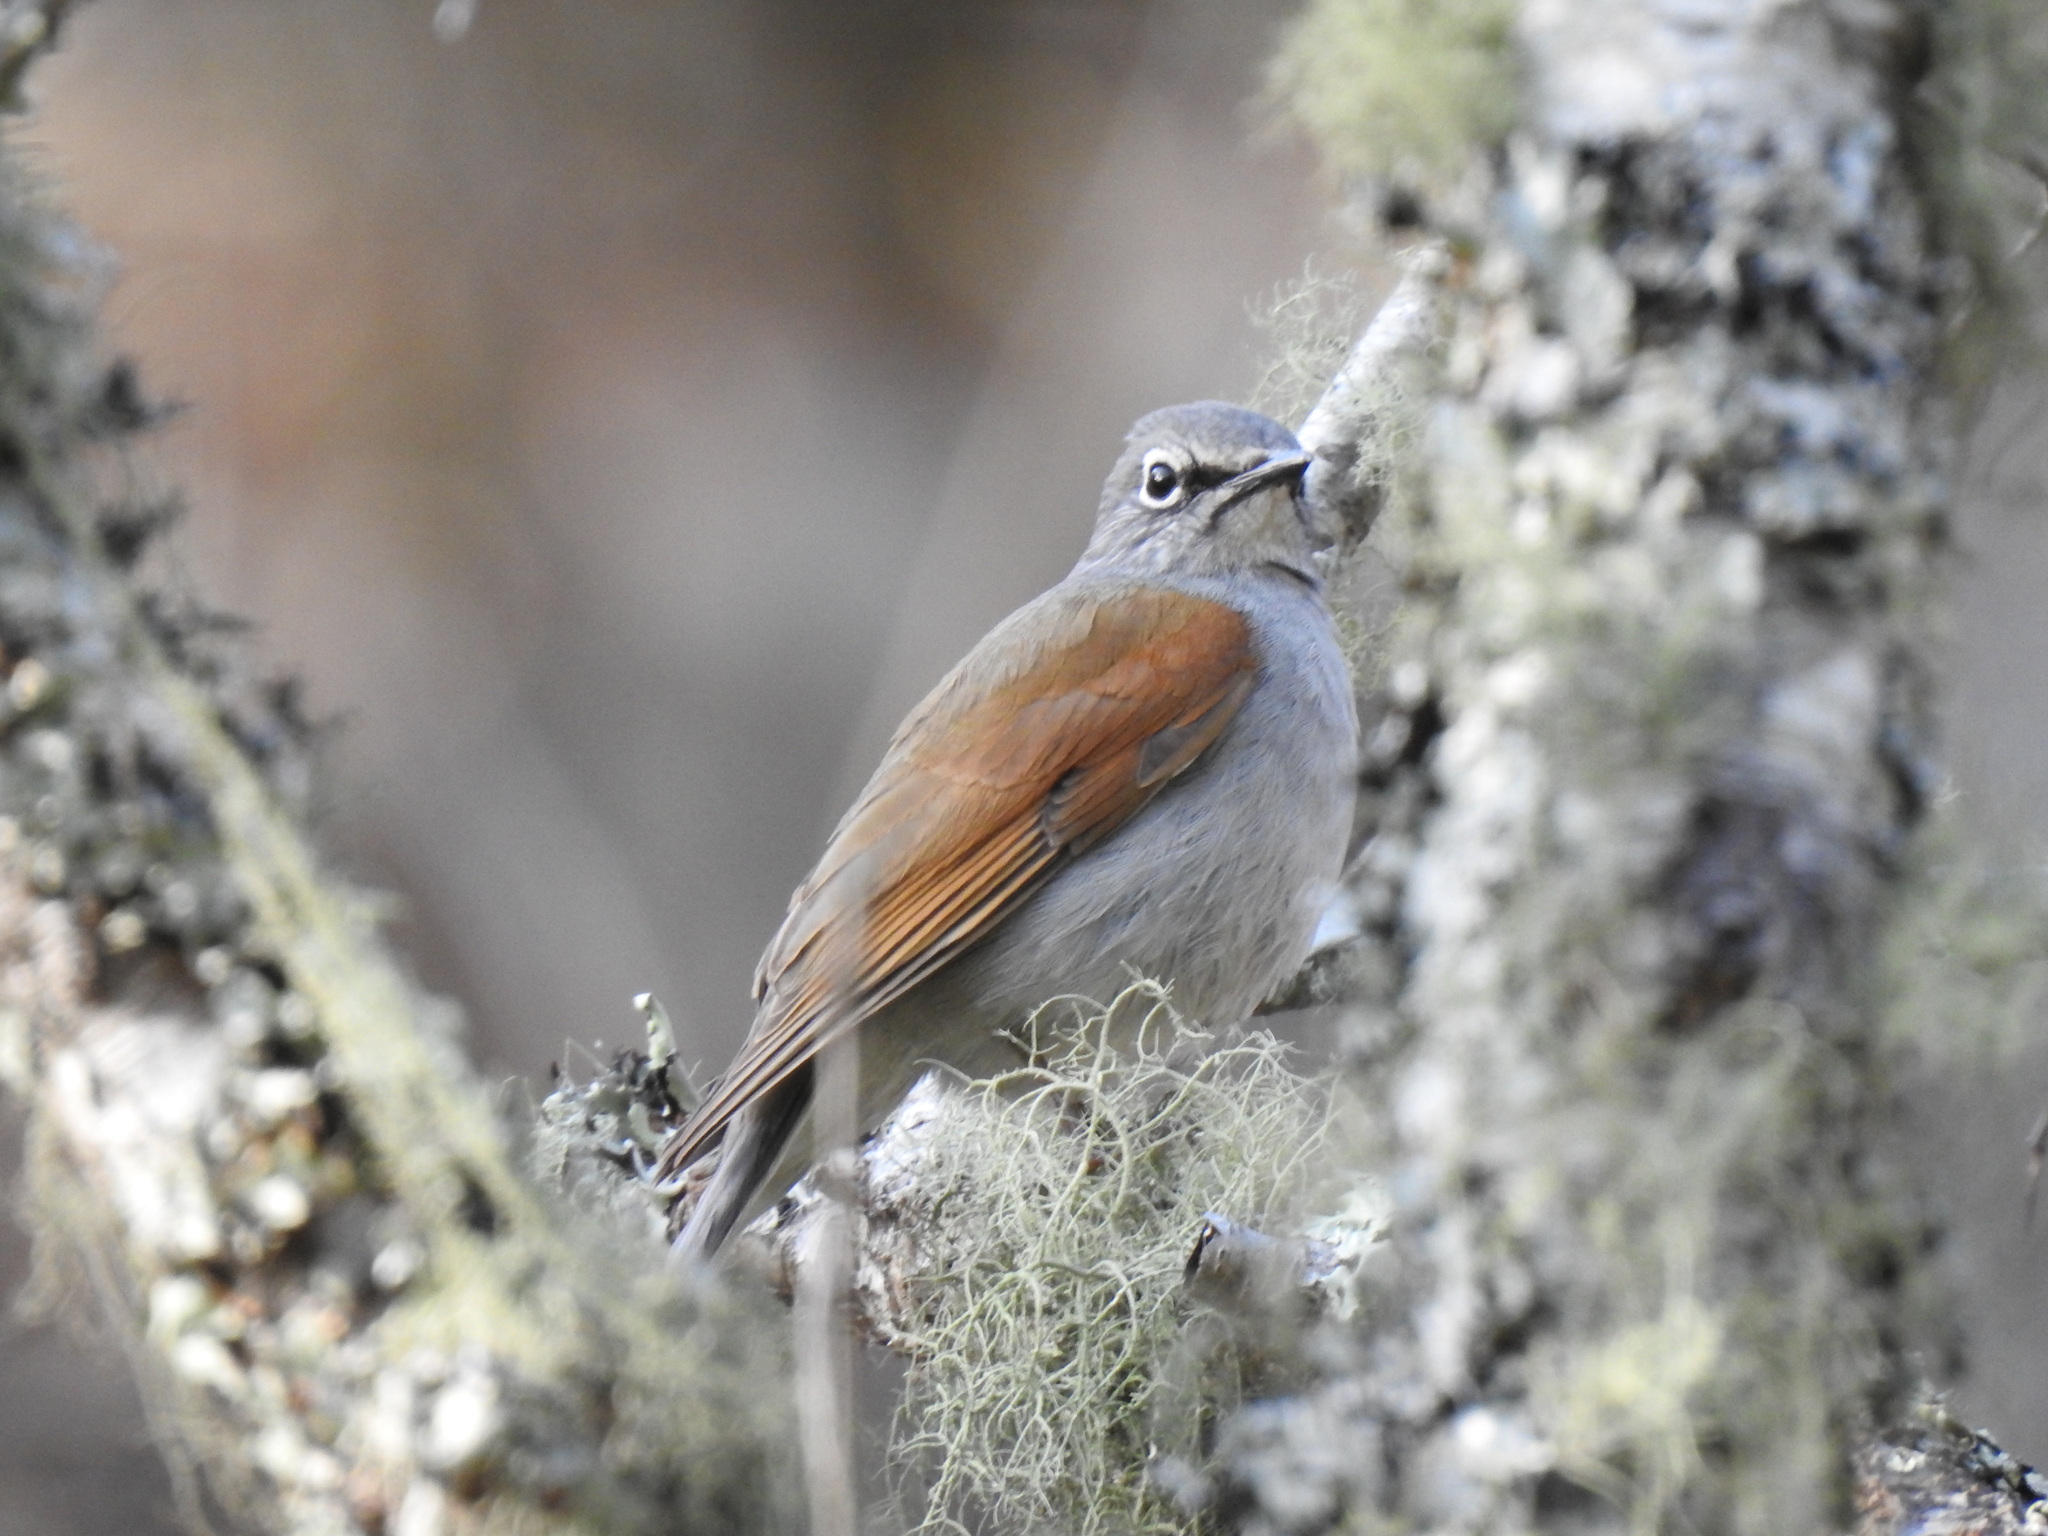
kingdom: Animalia
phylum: Chordata
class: Aves
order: Passeriformes
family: Turdidae
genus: Myadestes
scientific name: Myadestes occidentalis
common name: Brown-backed solitaire
